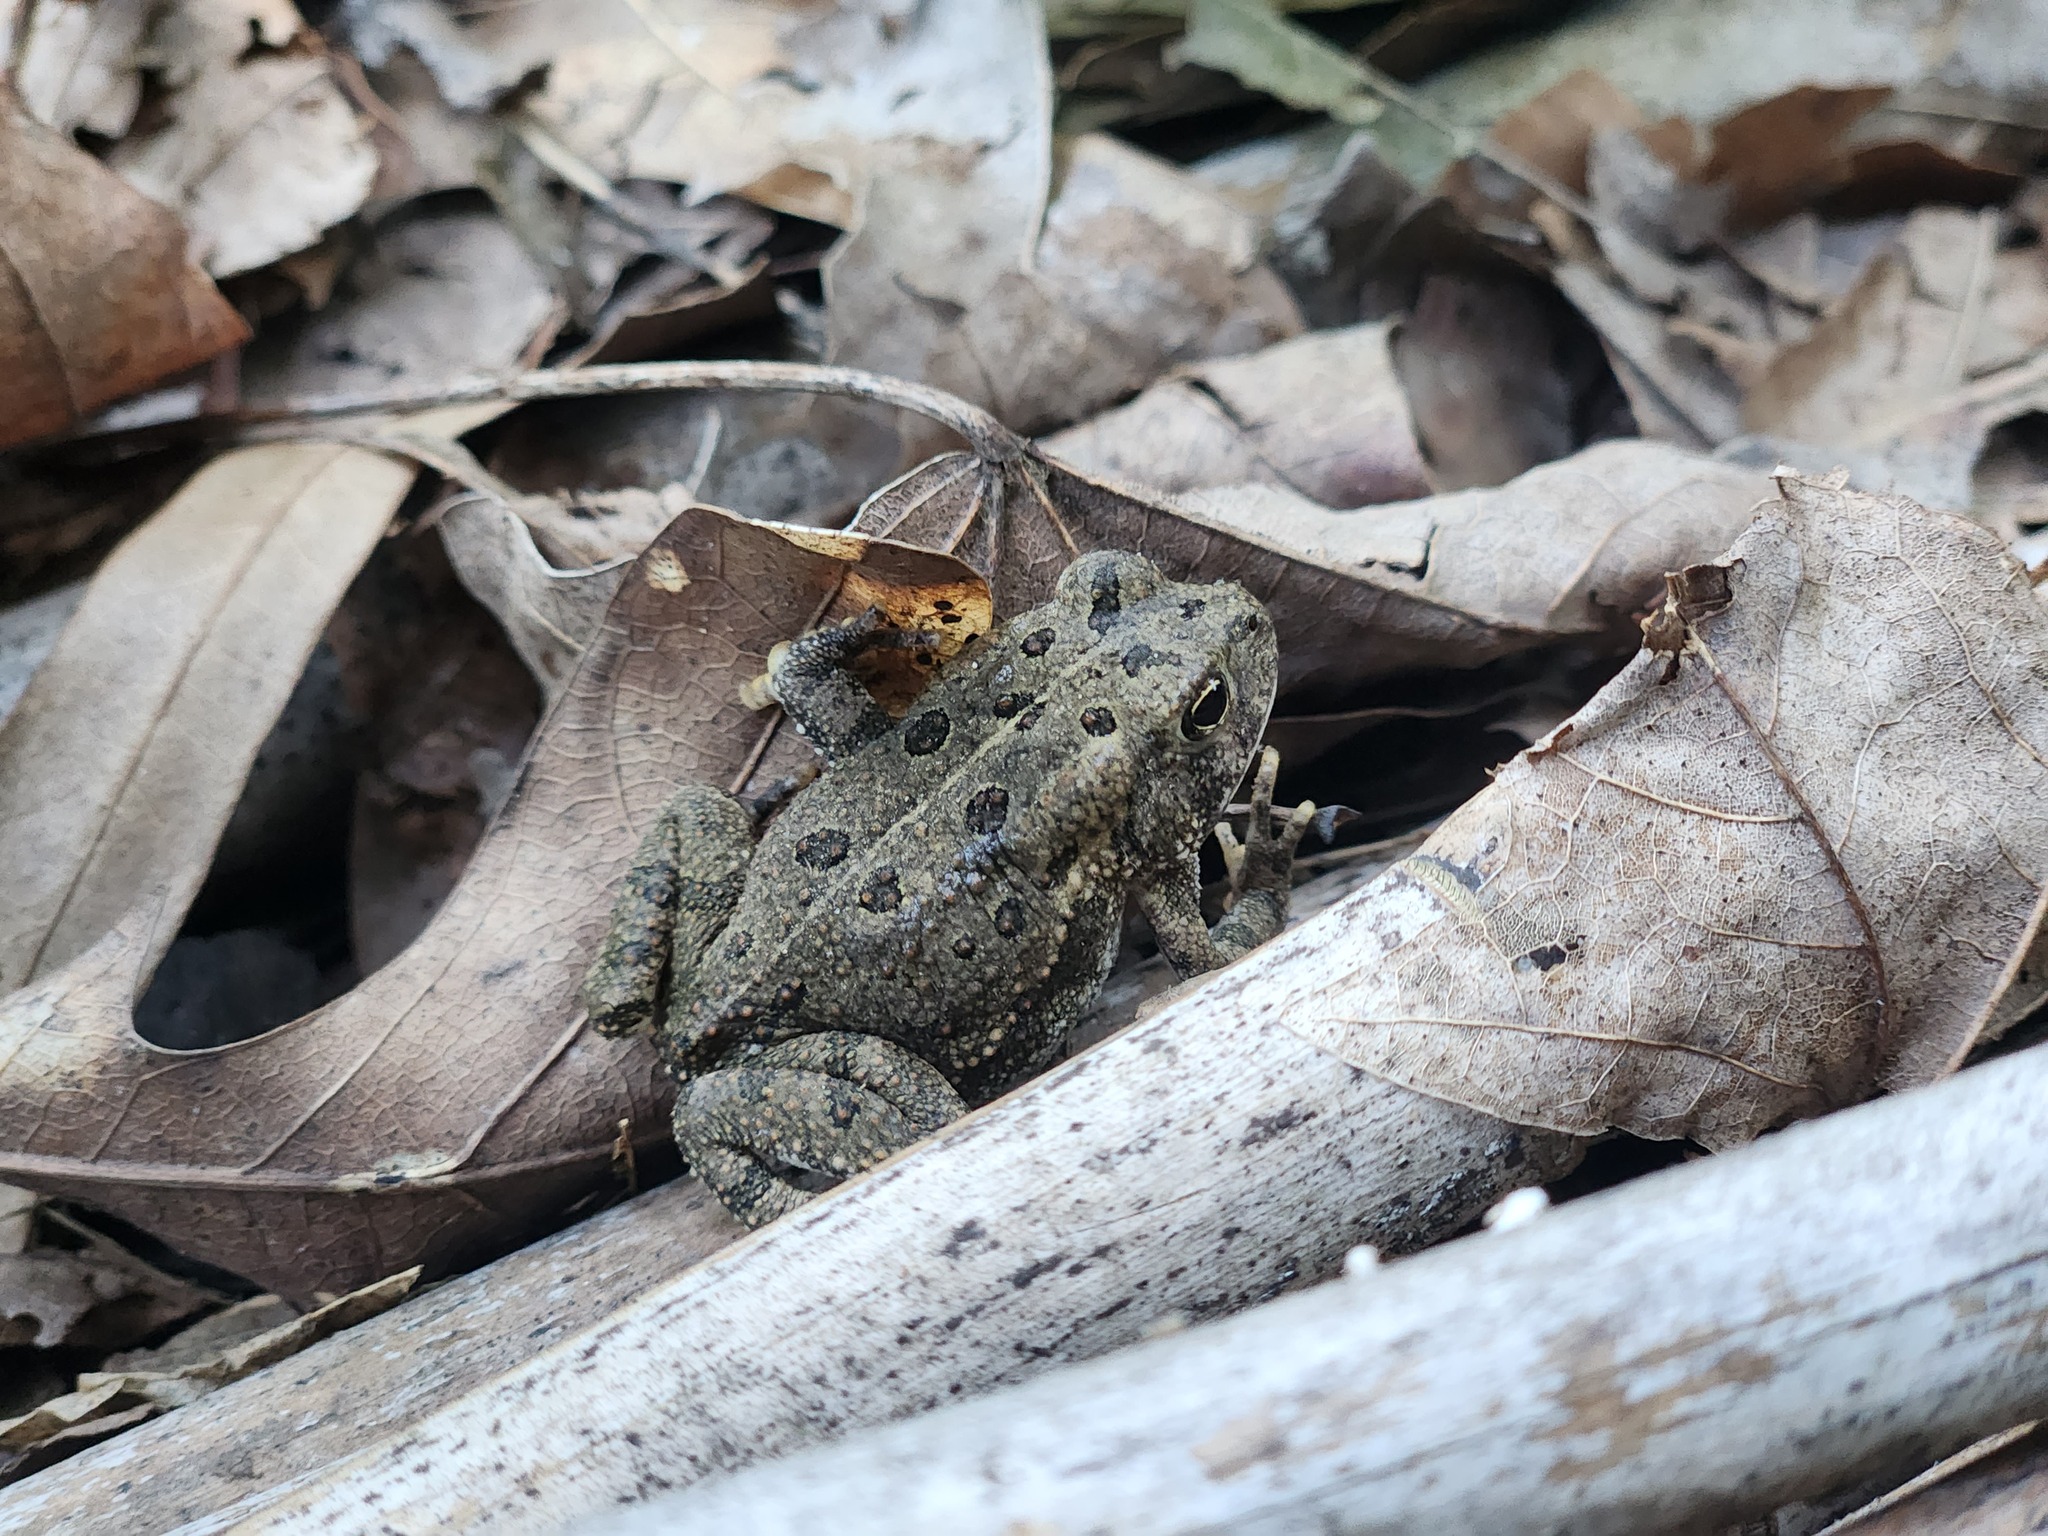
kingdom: Animalia
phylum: Chordata
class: Amphibia
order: Anura
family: Bufonidae
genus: Anaxyrus
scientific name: Anaxyrus fowleri
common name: Fowler's toad
